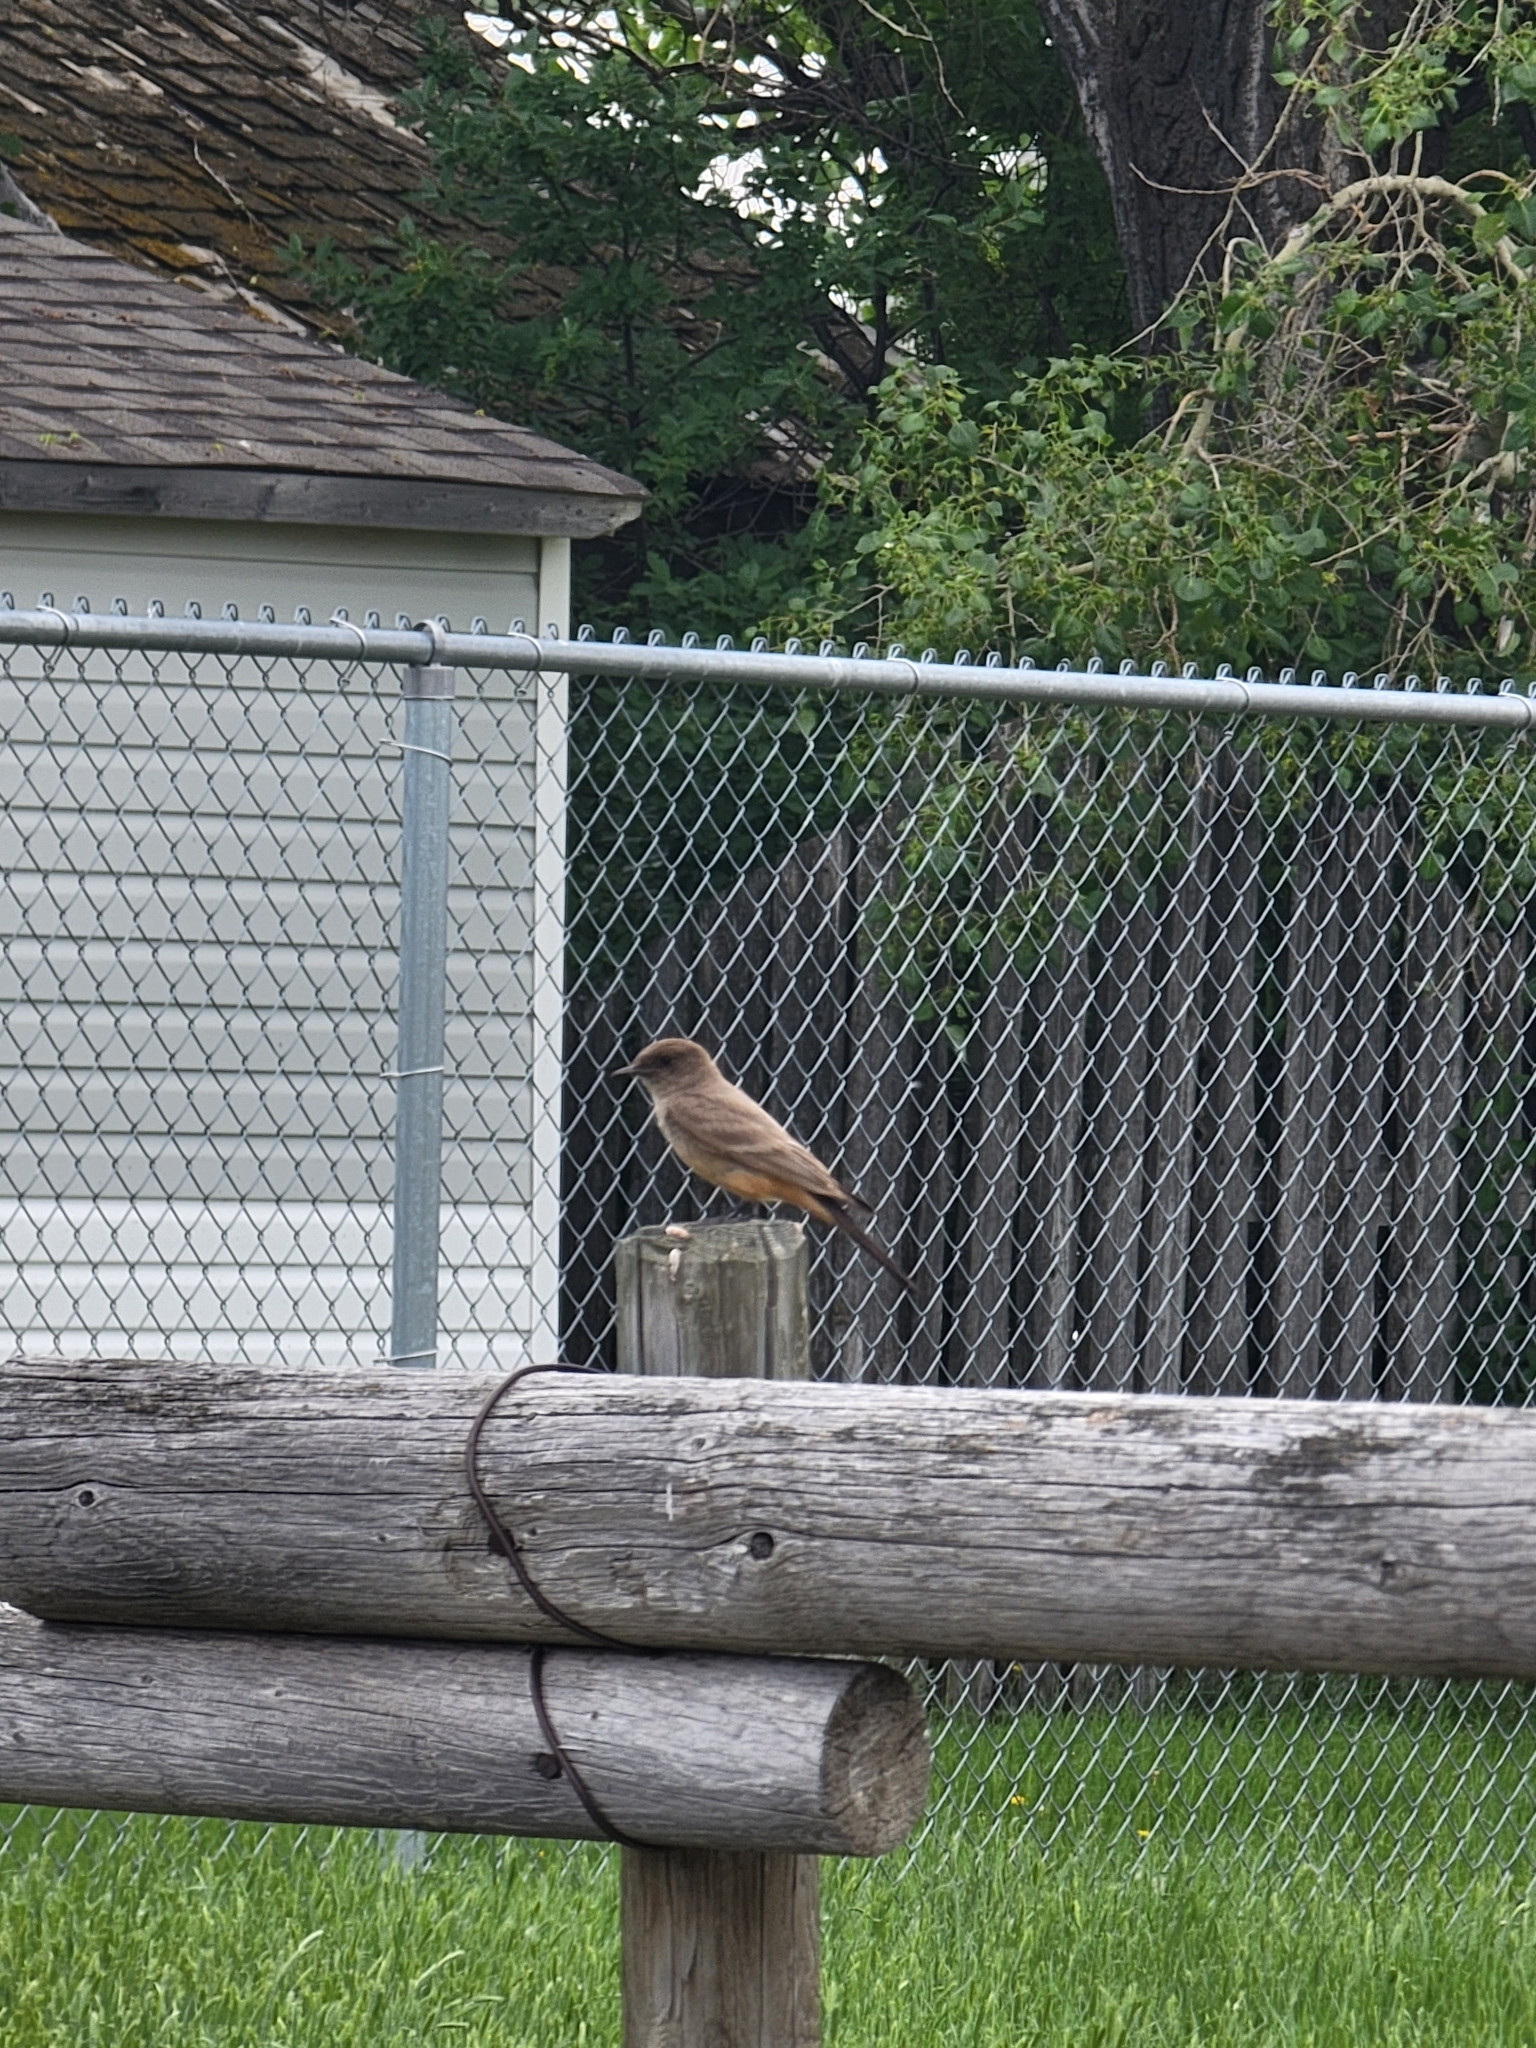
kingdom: Animalia
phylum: Chordata
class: Aves
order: Passeriformes
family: Tyrannidae
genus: Sayornis
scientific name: Sayornis saya
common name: Say's phoebe
